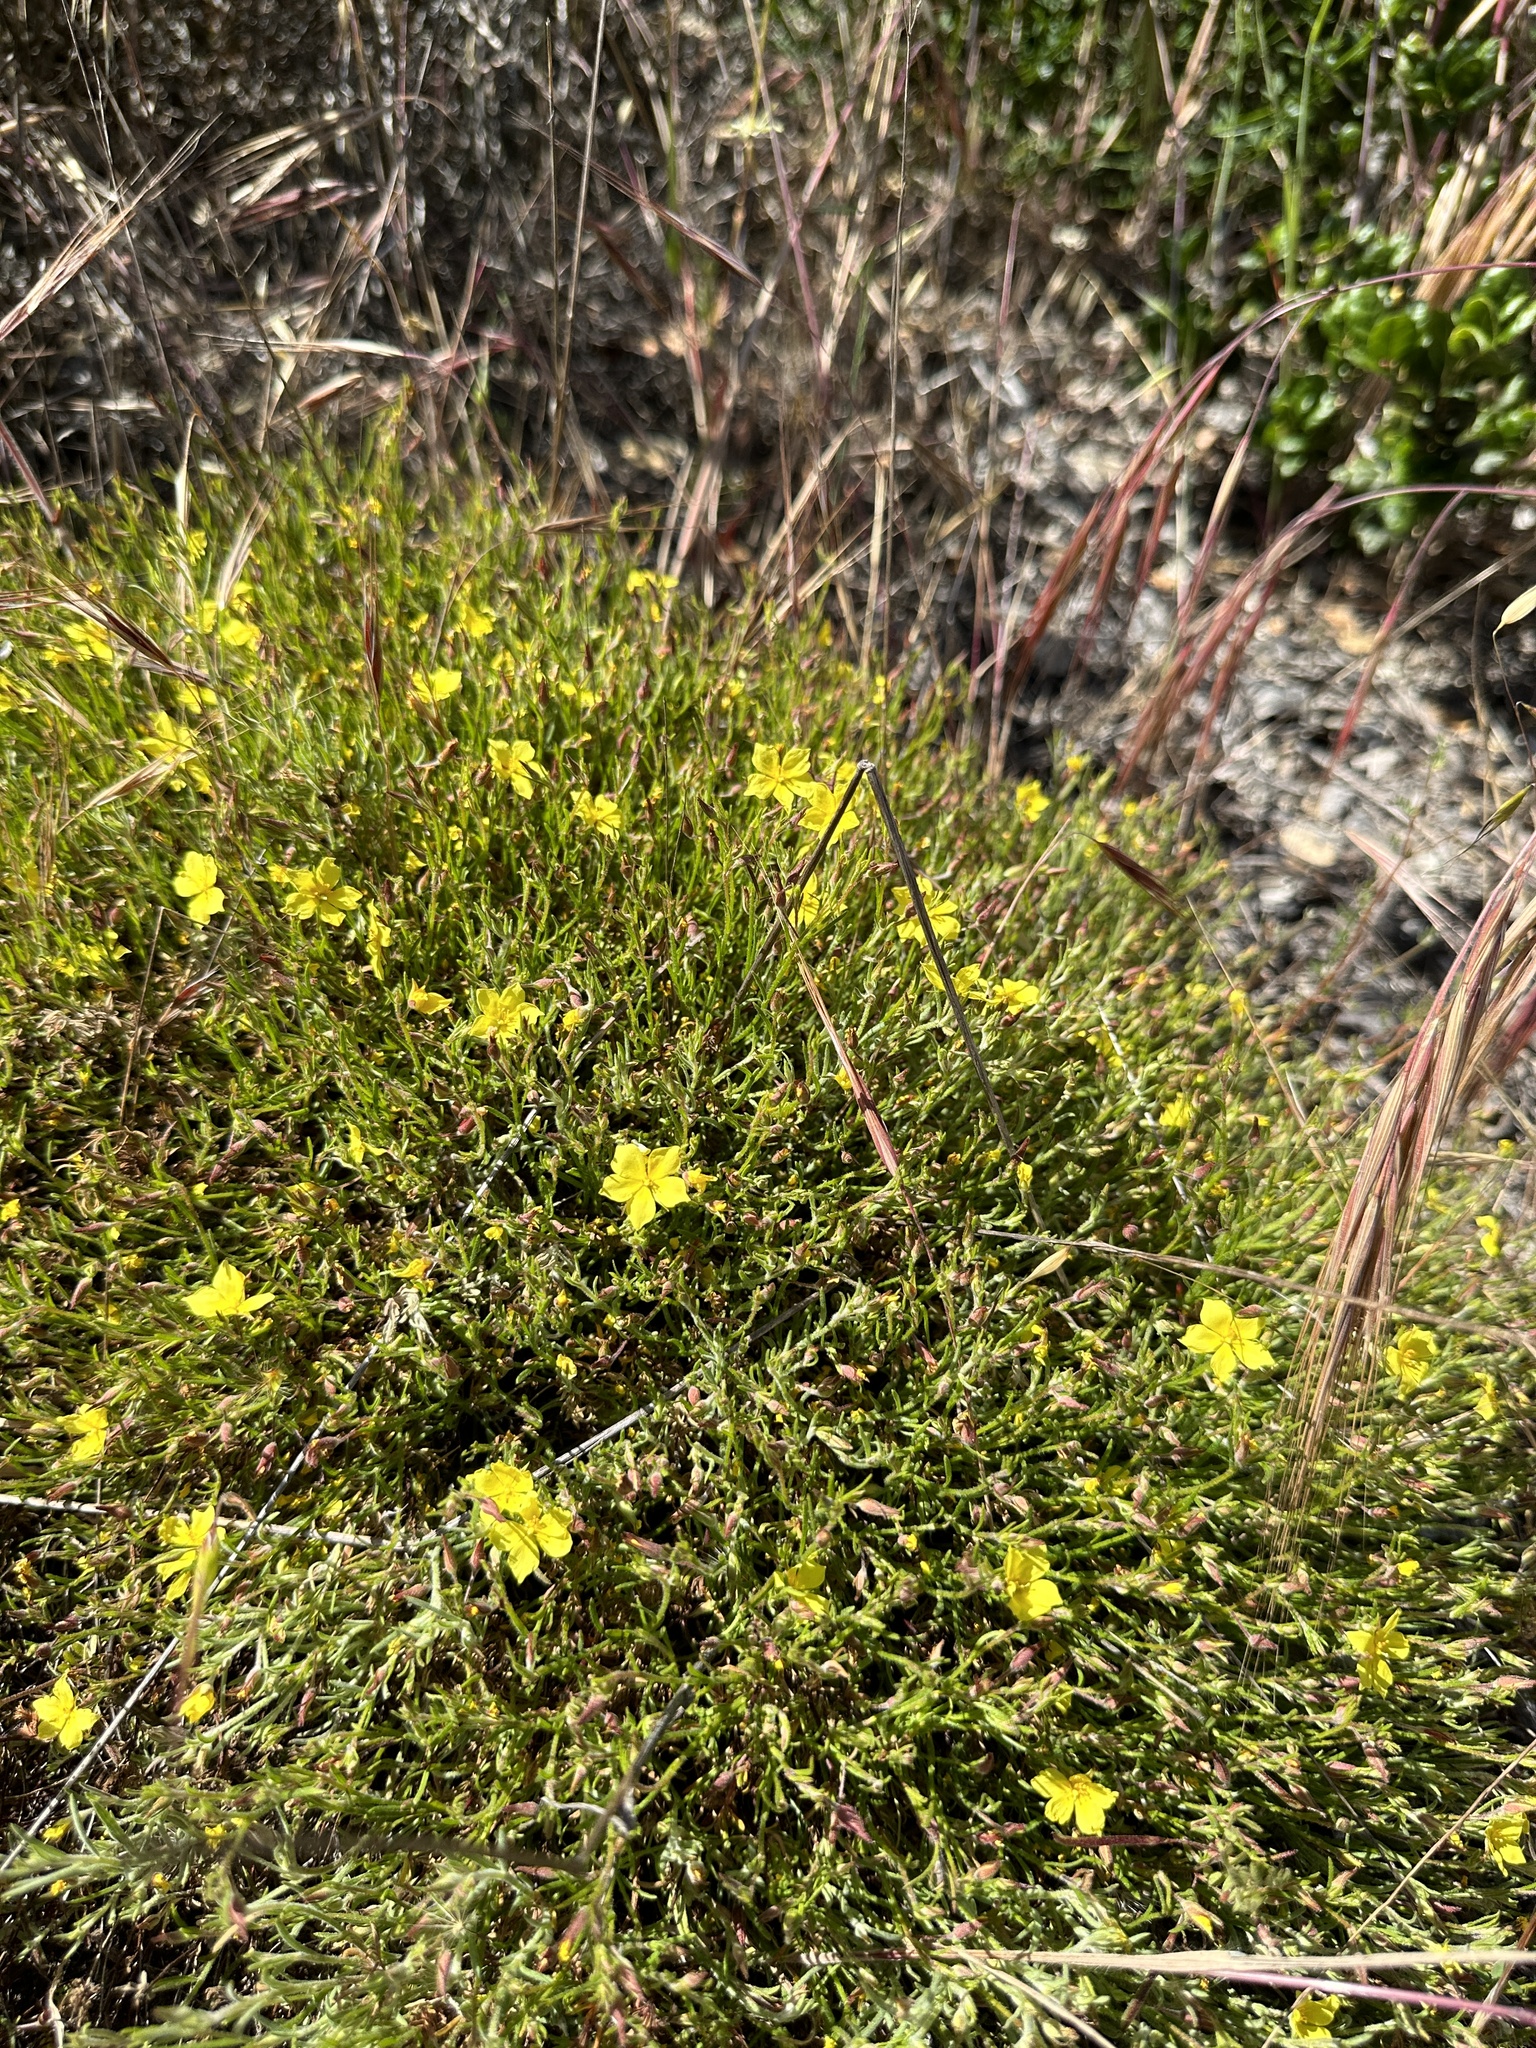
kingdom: Plantae
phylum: Tracheophyta
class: Magnoliopsida
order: Malvales
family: Cistaceae
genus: Crocanthemum
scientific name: Crocanthemum scoparium
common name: Broom-rose
